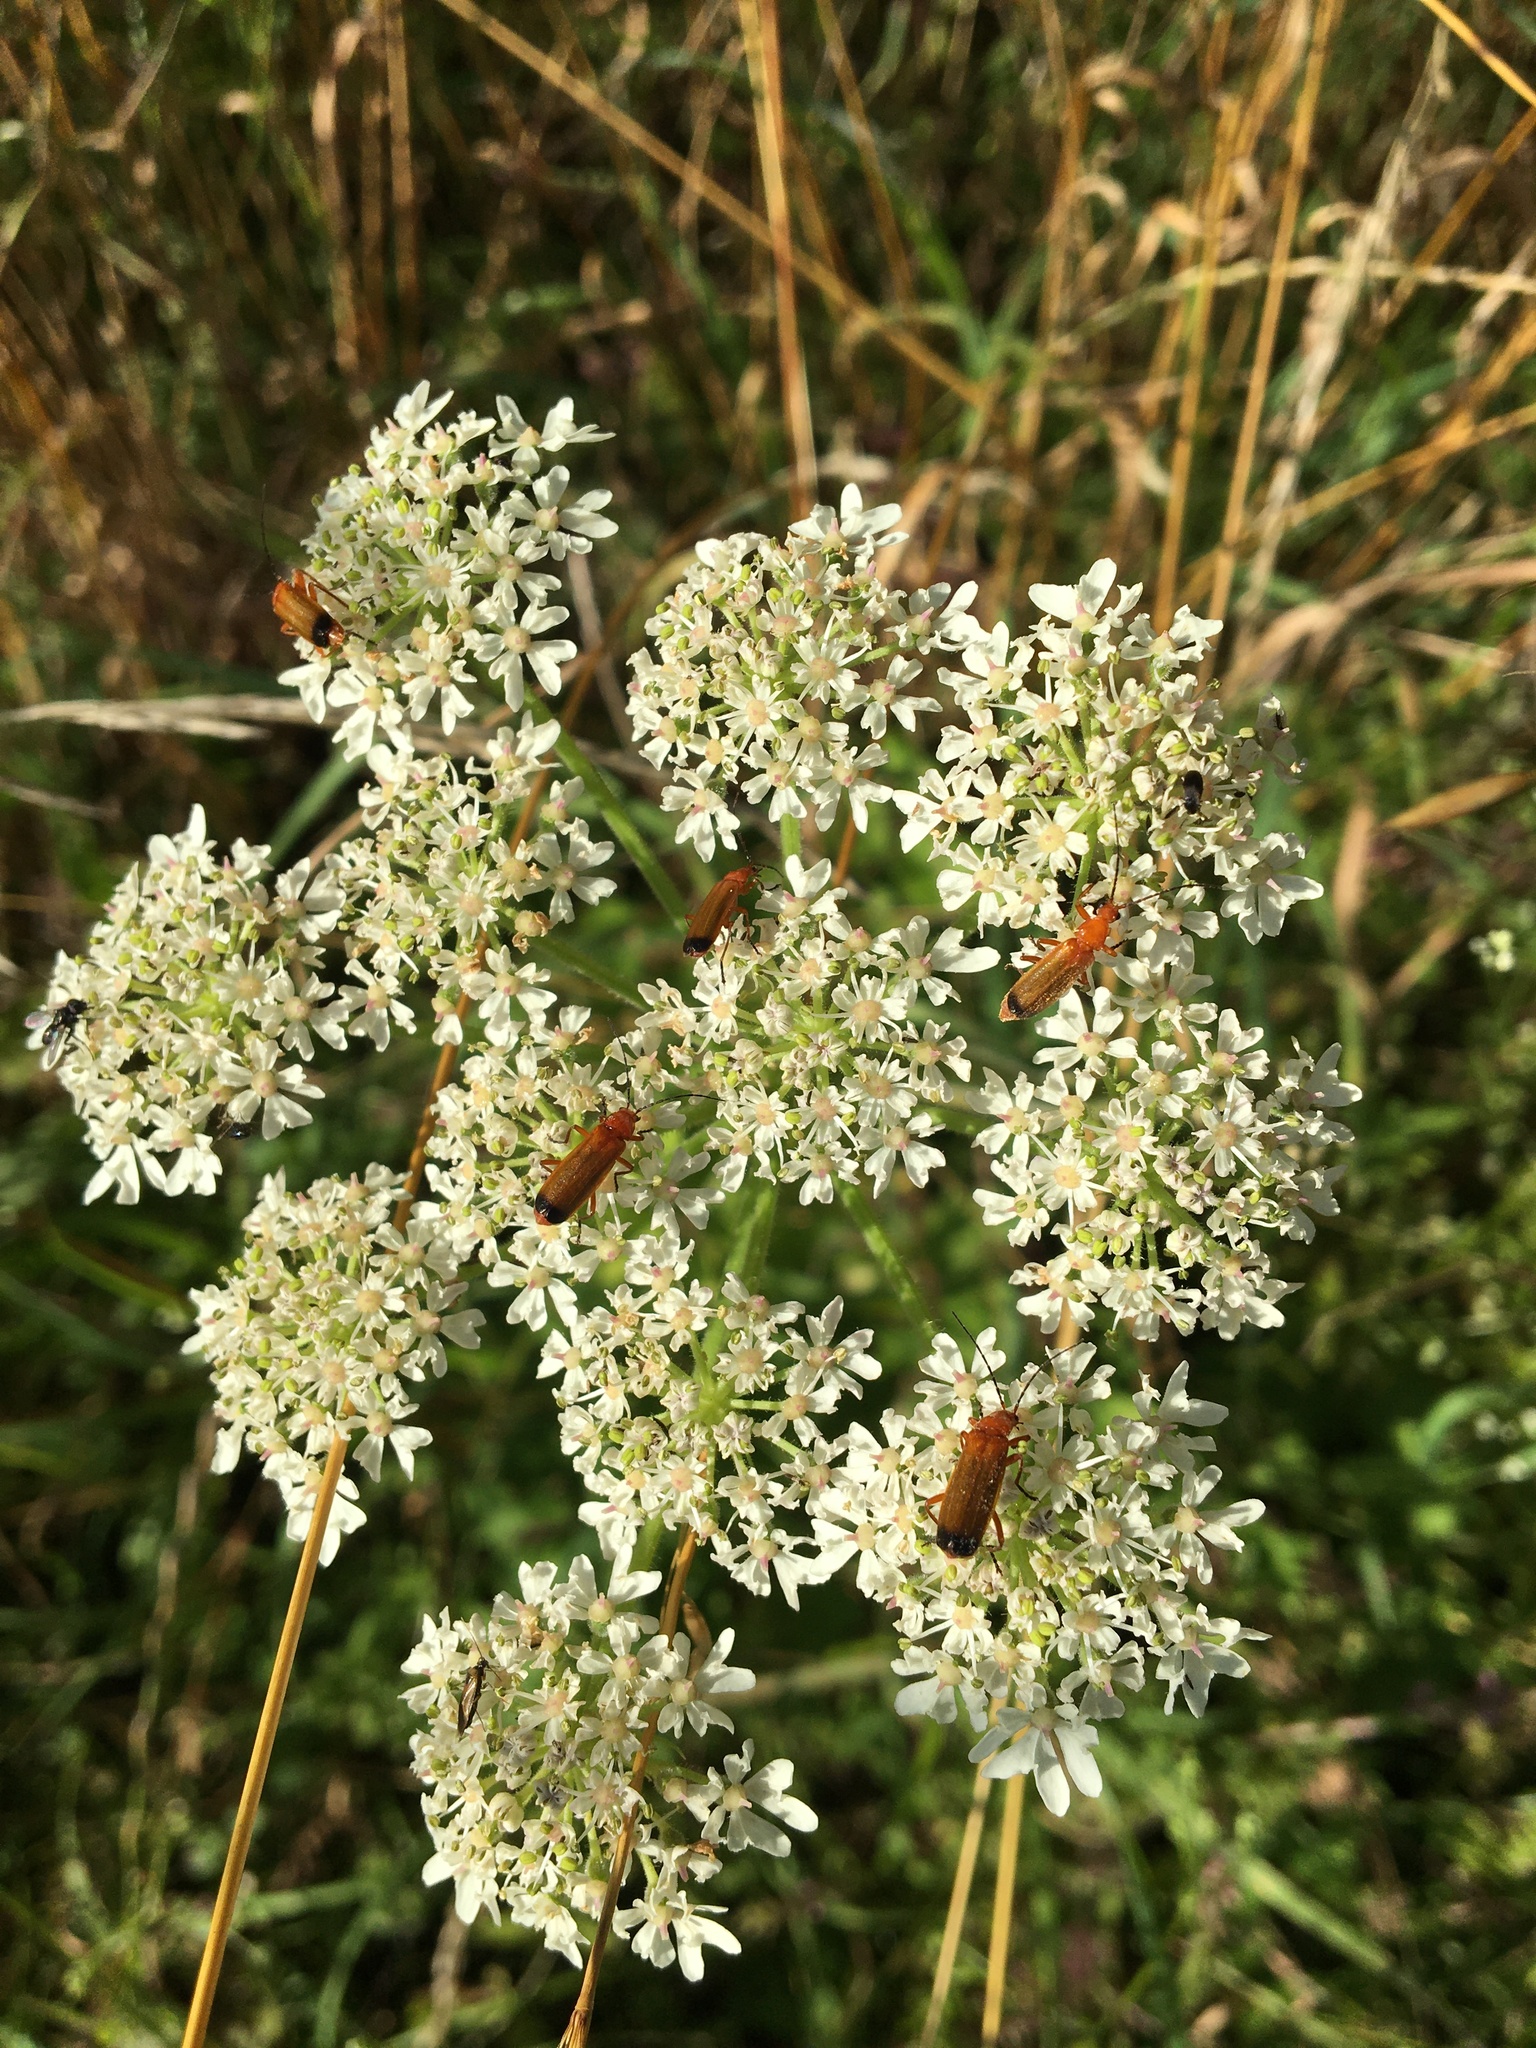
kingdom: Animalia
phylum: Arthropoda
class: Insecta
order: Coleoptera
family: Cantharidae
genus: Rhagonycha
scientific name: Rhagonycha fulva
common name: Common red soldier beetle
